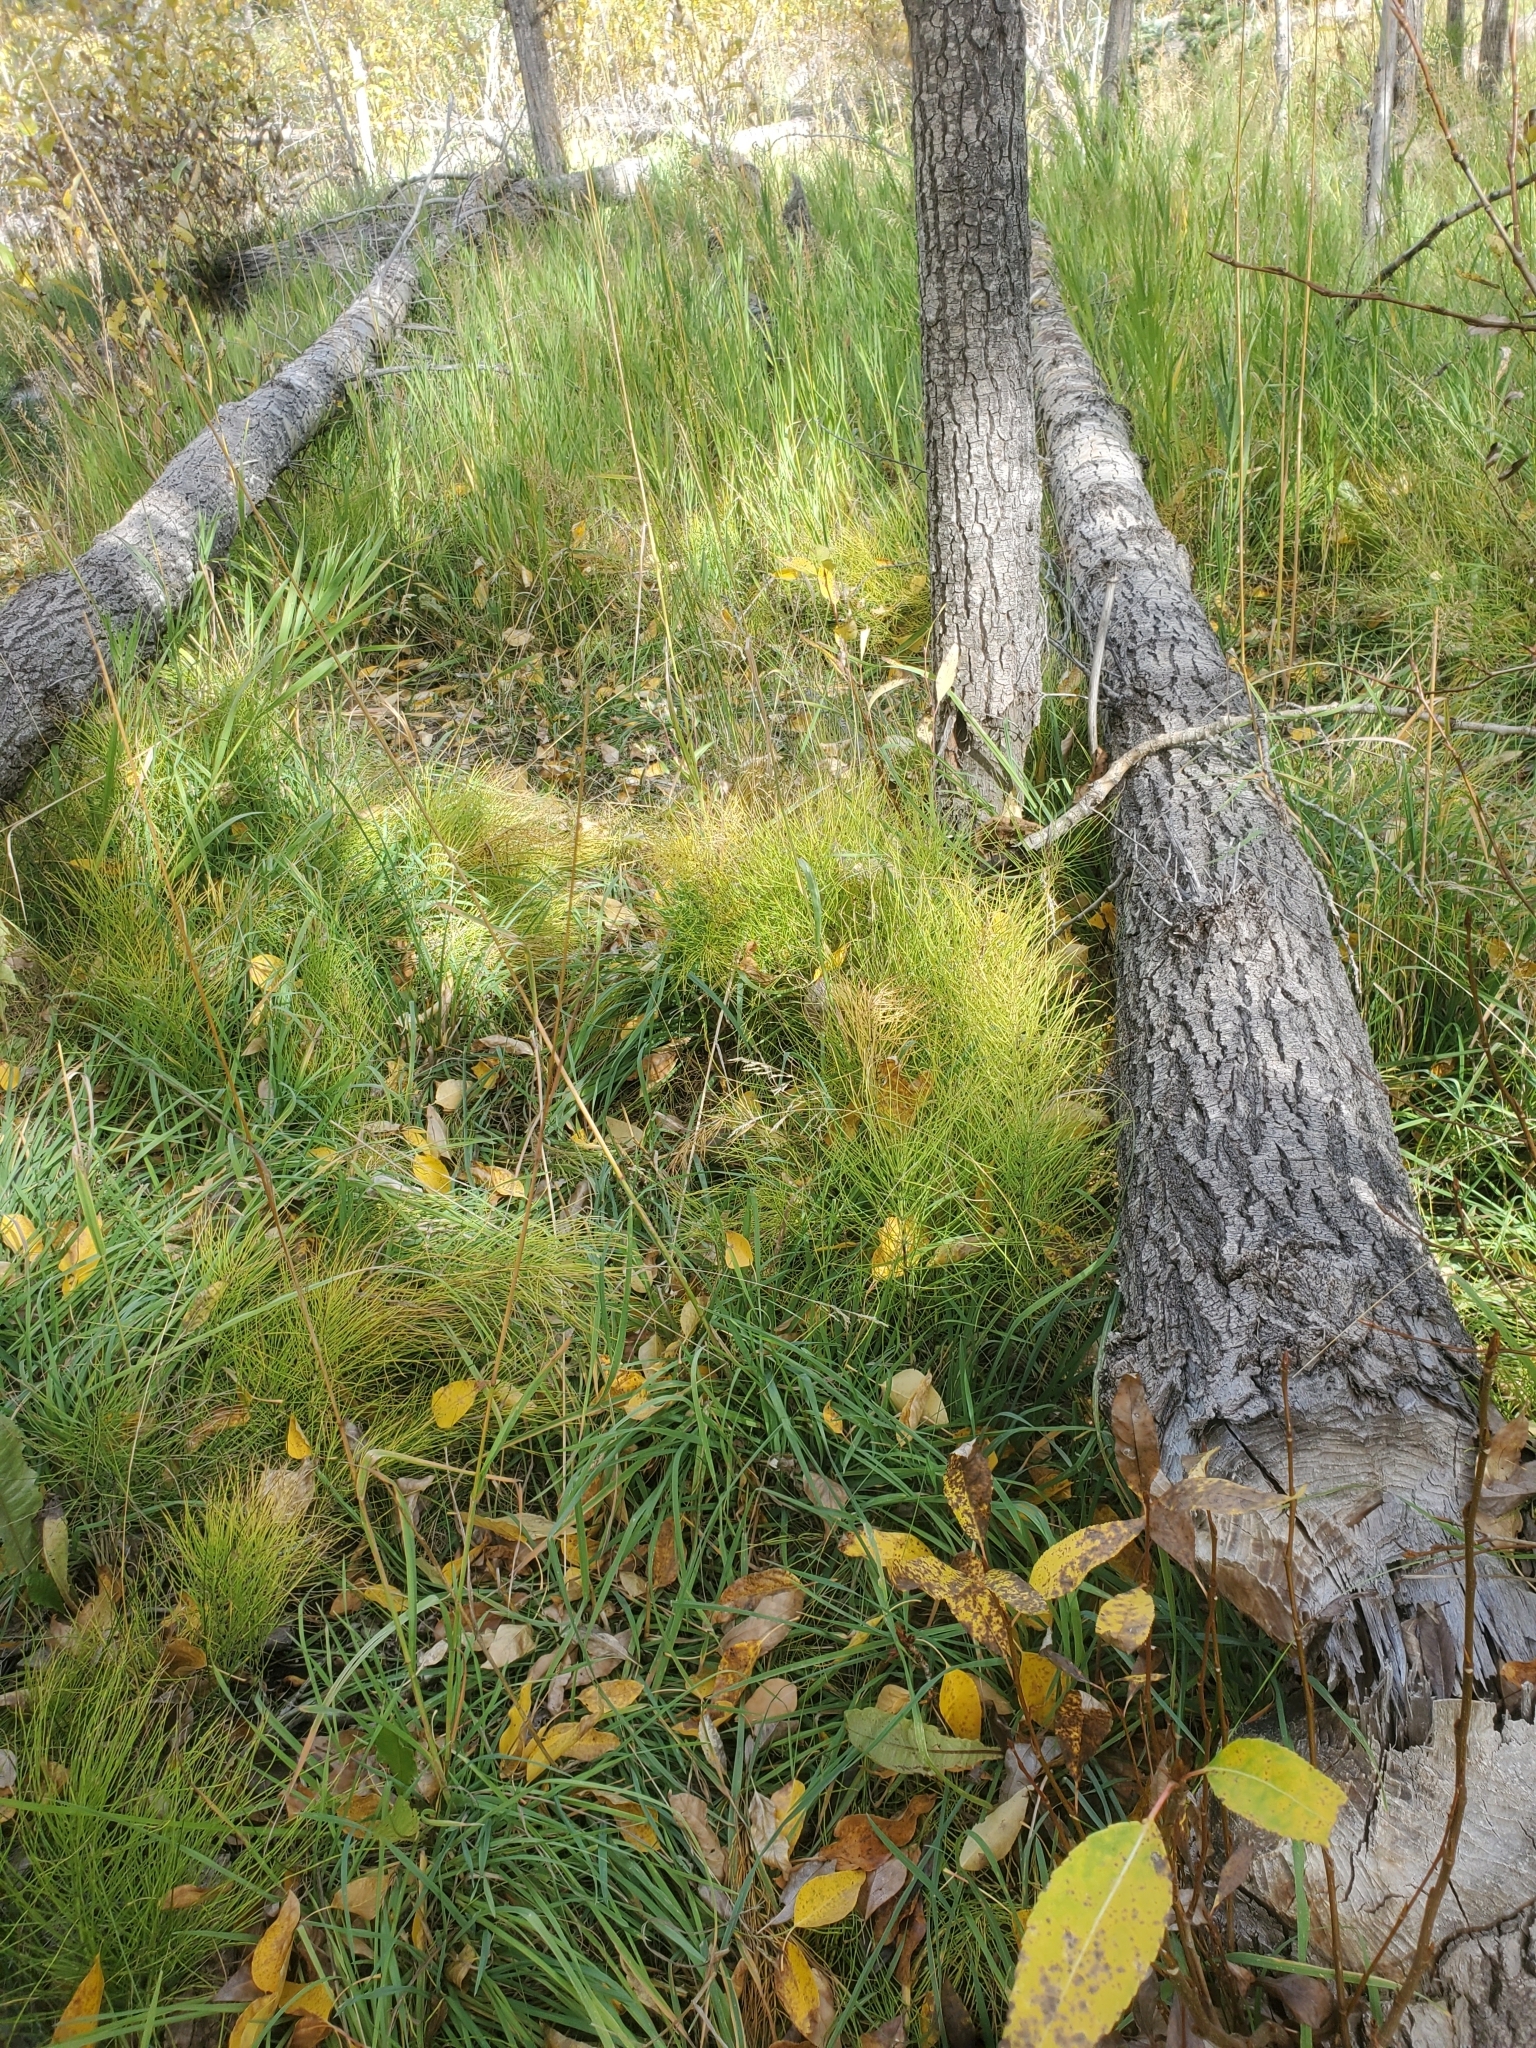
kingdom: Plantae
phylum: Tracheophyta
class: Polypodiopsida
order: Equisetales
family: Equisetaceae
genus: Equisetum
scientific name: Equisetum arvense
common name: Field horsetail
